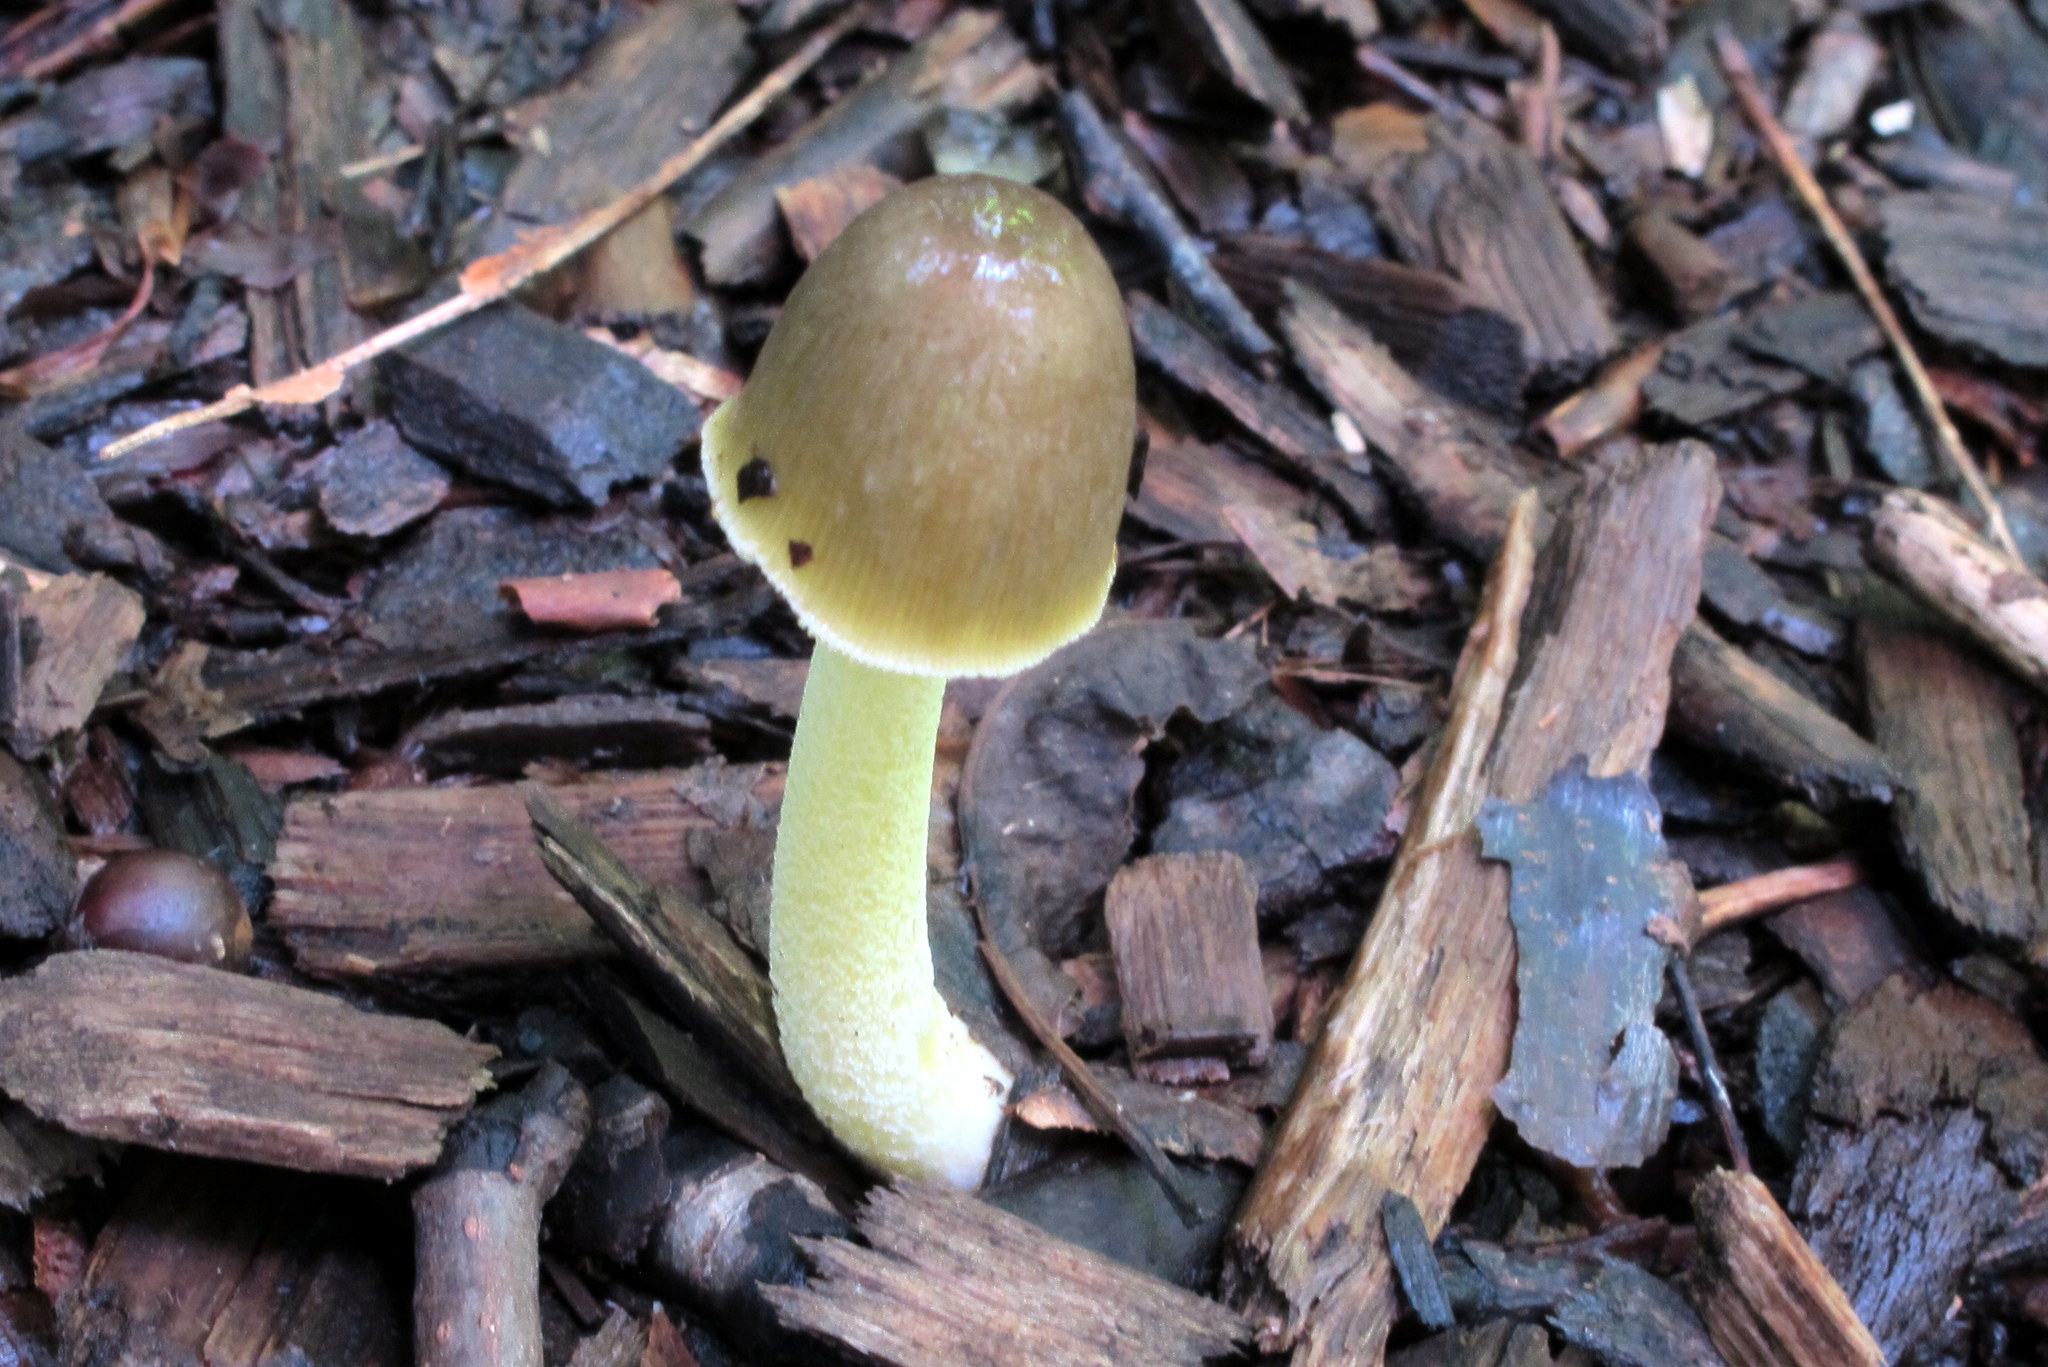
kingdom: Fungi
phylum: Basidiomycota
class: Agaricomycetes
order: Agaricales
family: Bolbitiaceae
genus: Bolbitius
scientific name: Bolbitius titubans
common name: Yellow fieldcap
